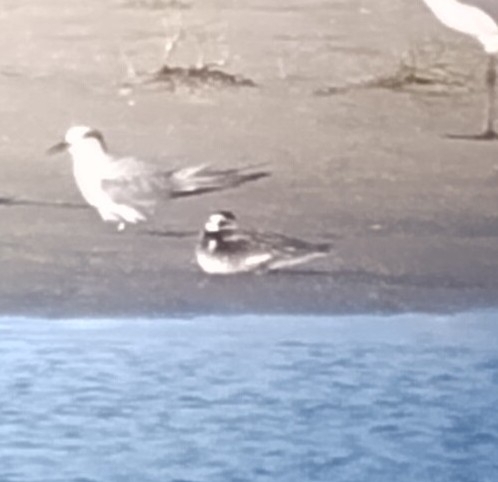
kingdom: Animalia
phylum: Chordata
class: Aves
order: Charadriiformes
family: Scolopacidae
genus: Phalaropus
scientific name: Phalaropus lobatus
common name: Red-necked phalarope
